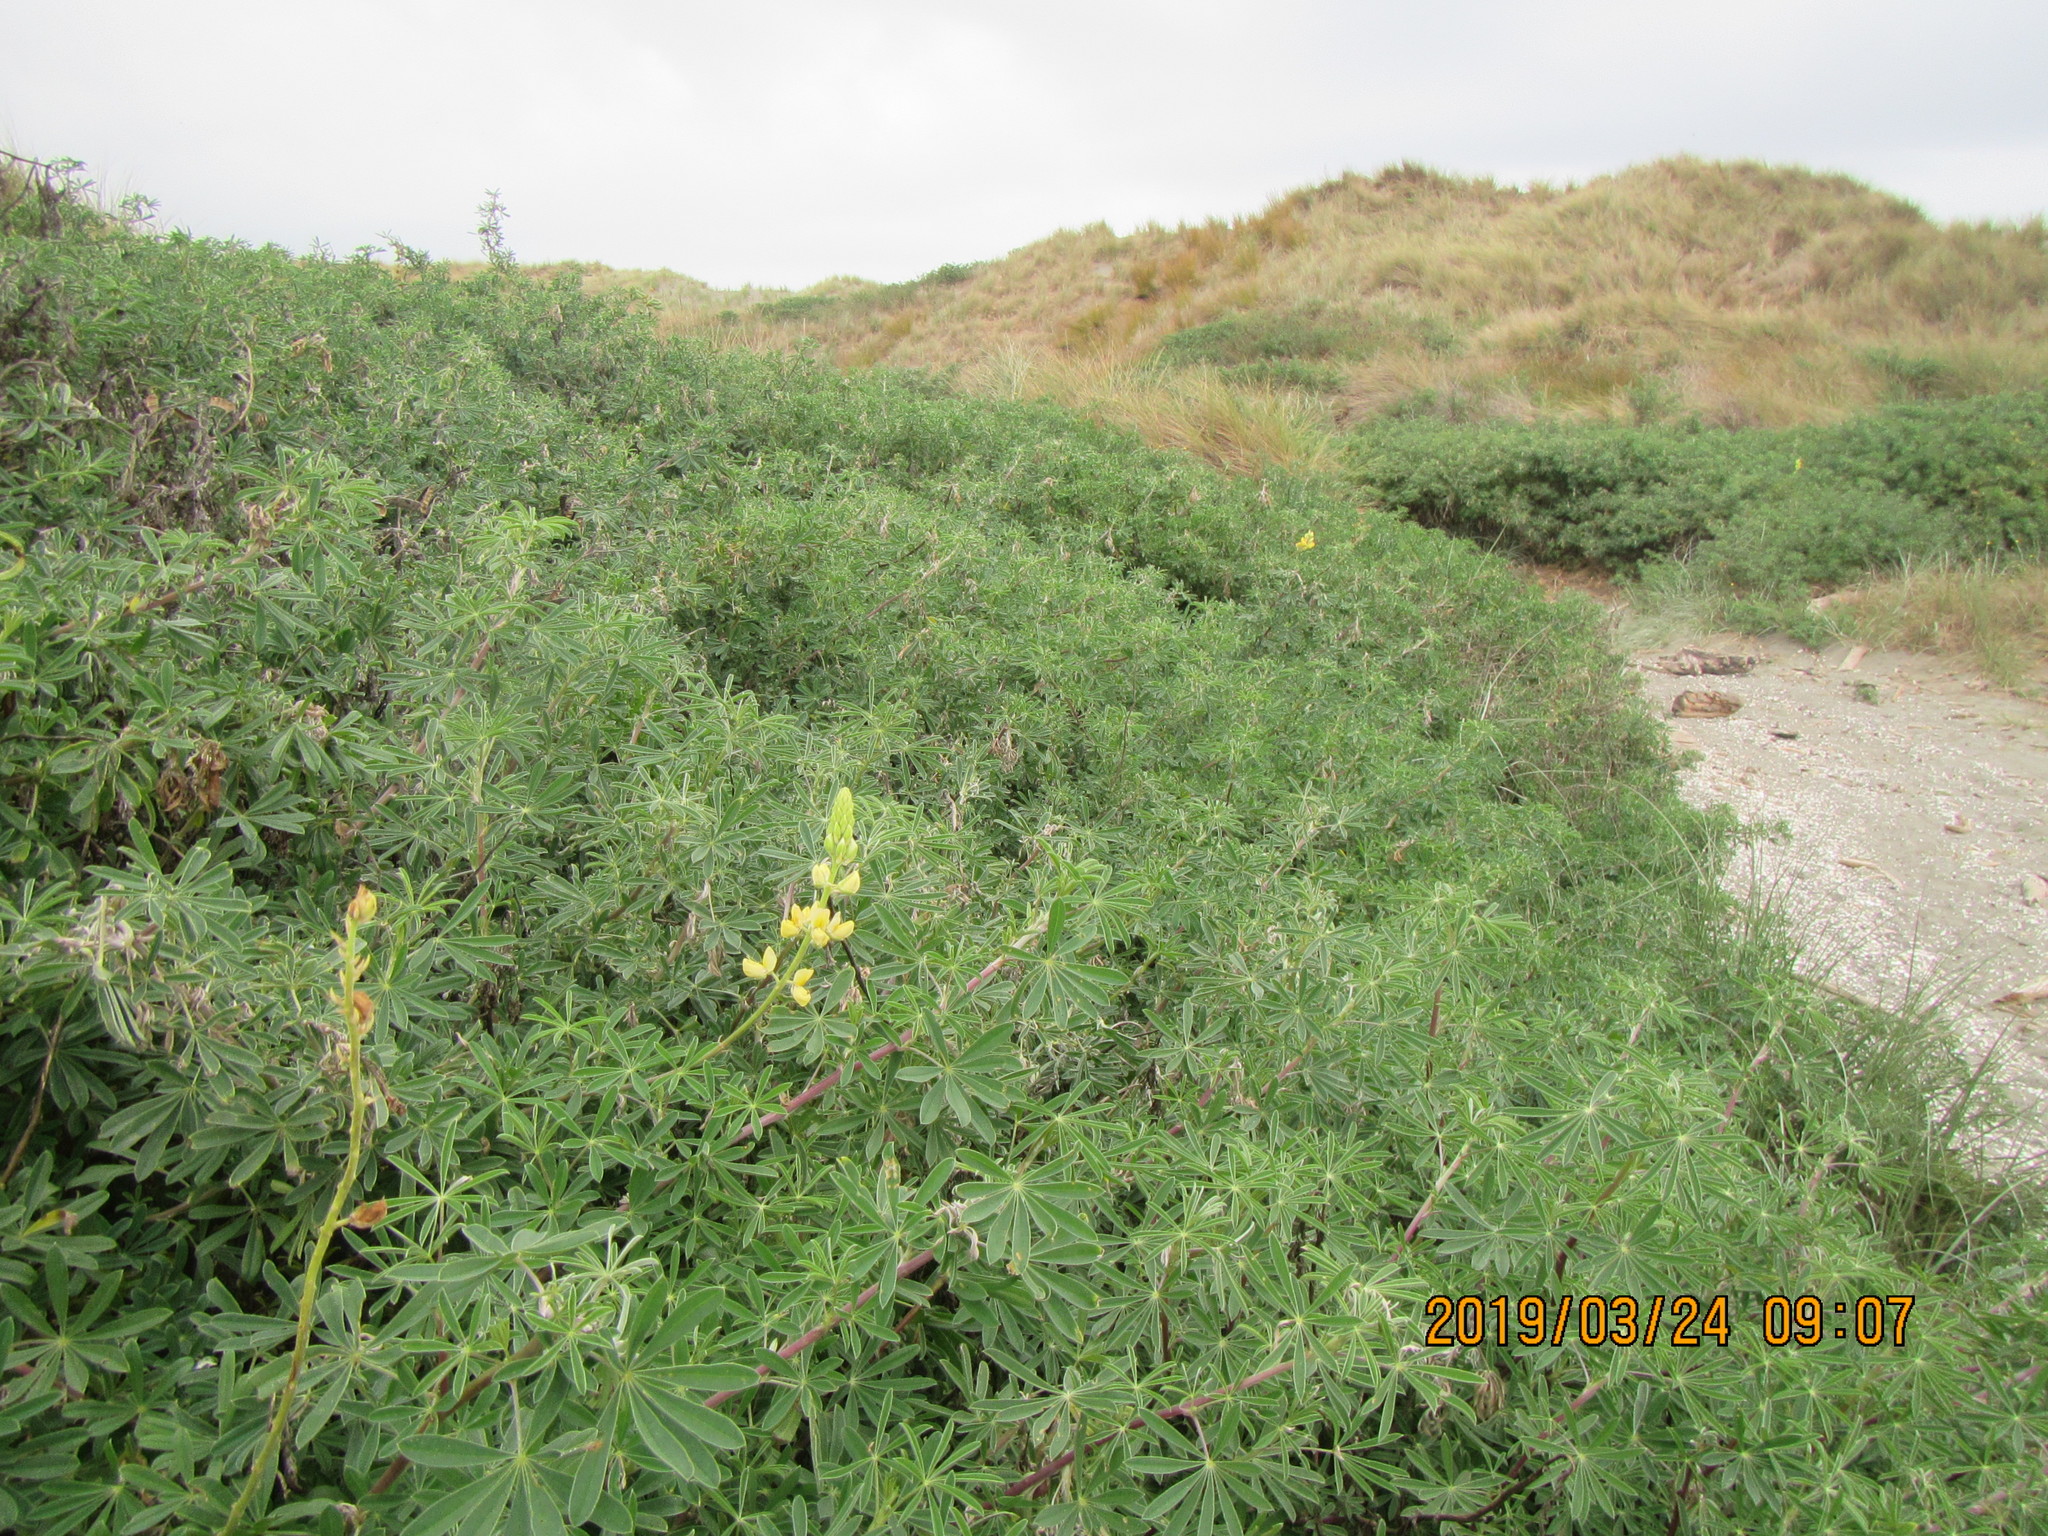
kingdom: Plantae
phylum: Tracheophyta
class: Magnoliopsida
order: Fabales
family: Fabaceae
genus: Lupinus
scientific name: Lupinus arboreus
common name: Yellow bush lupine
